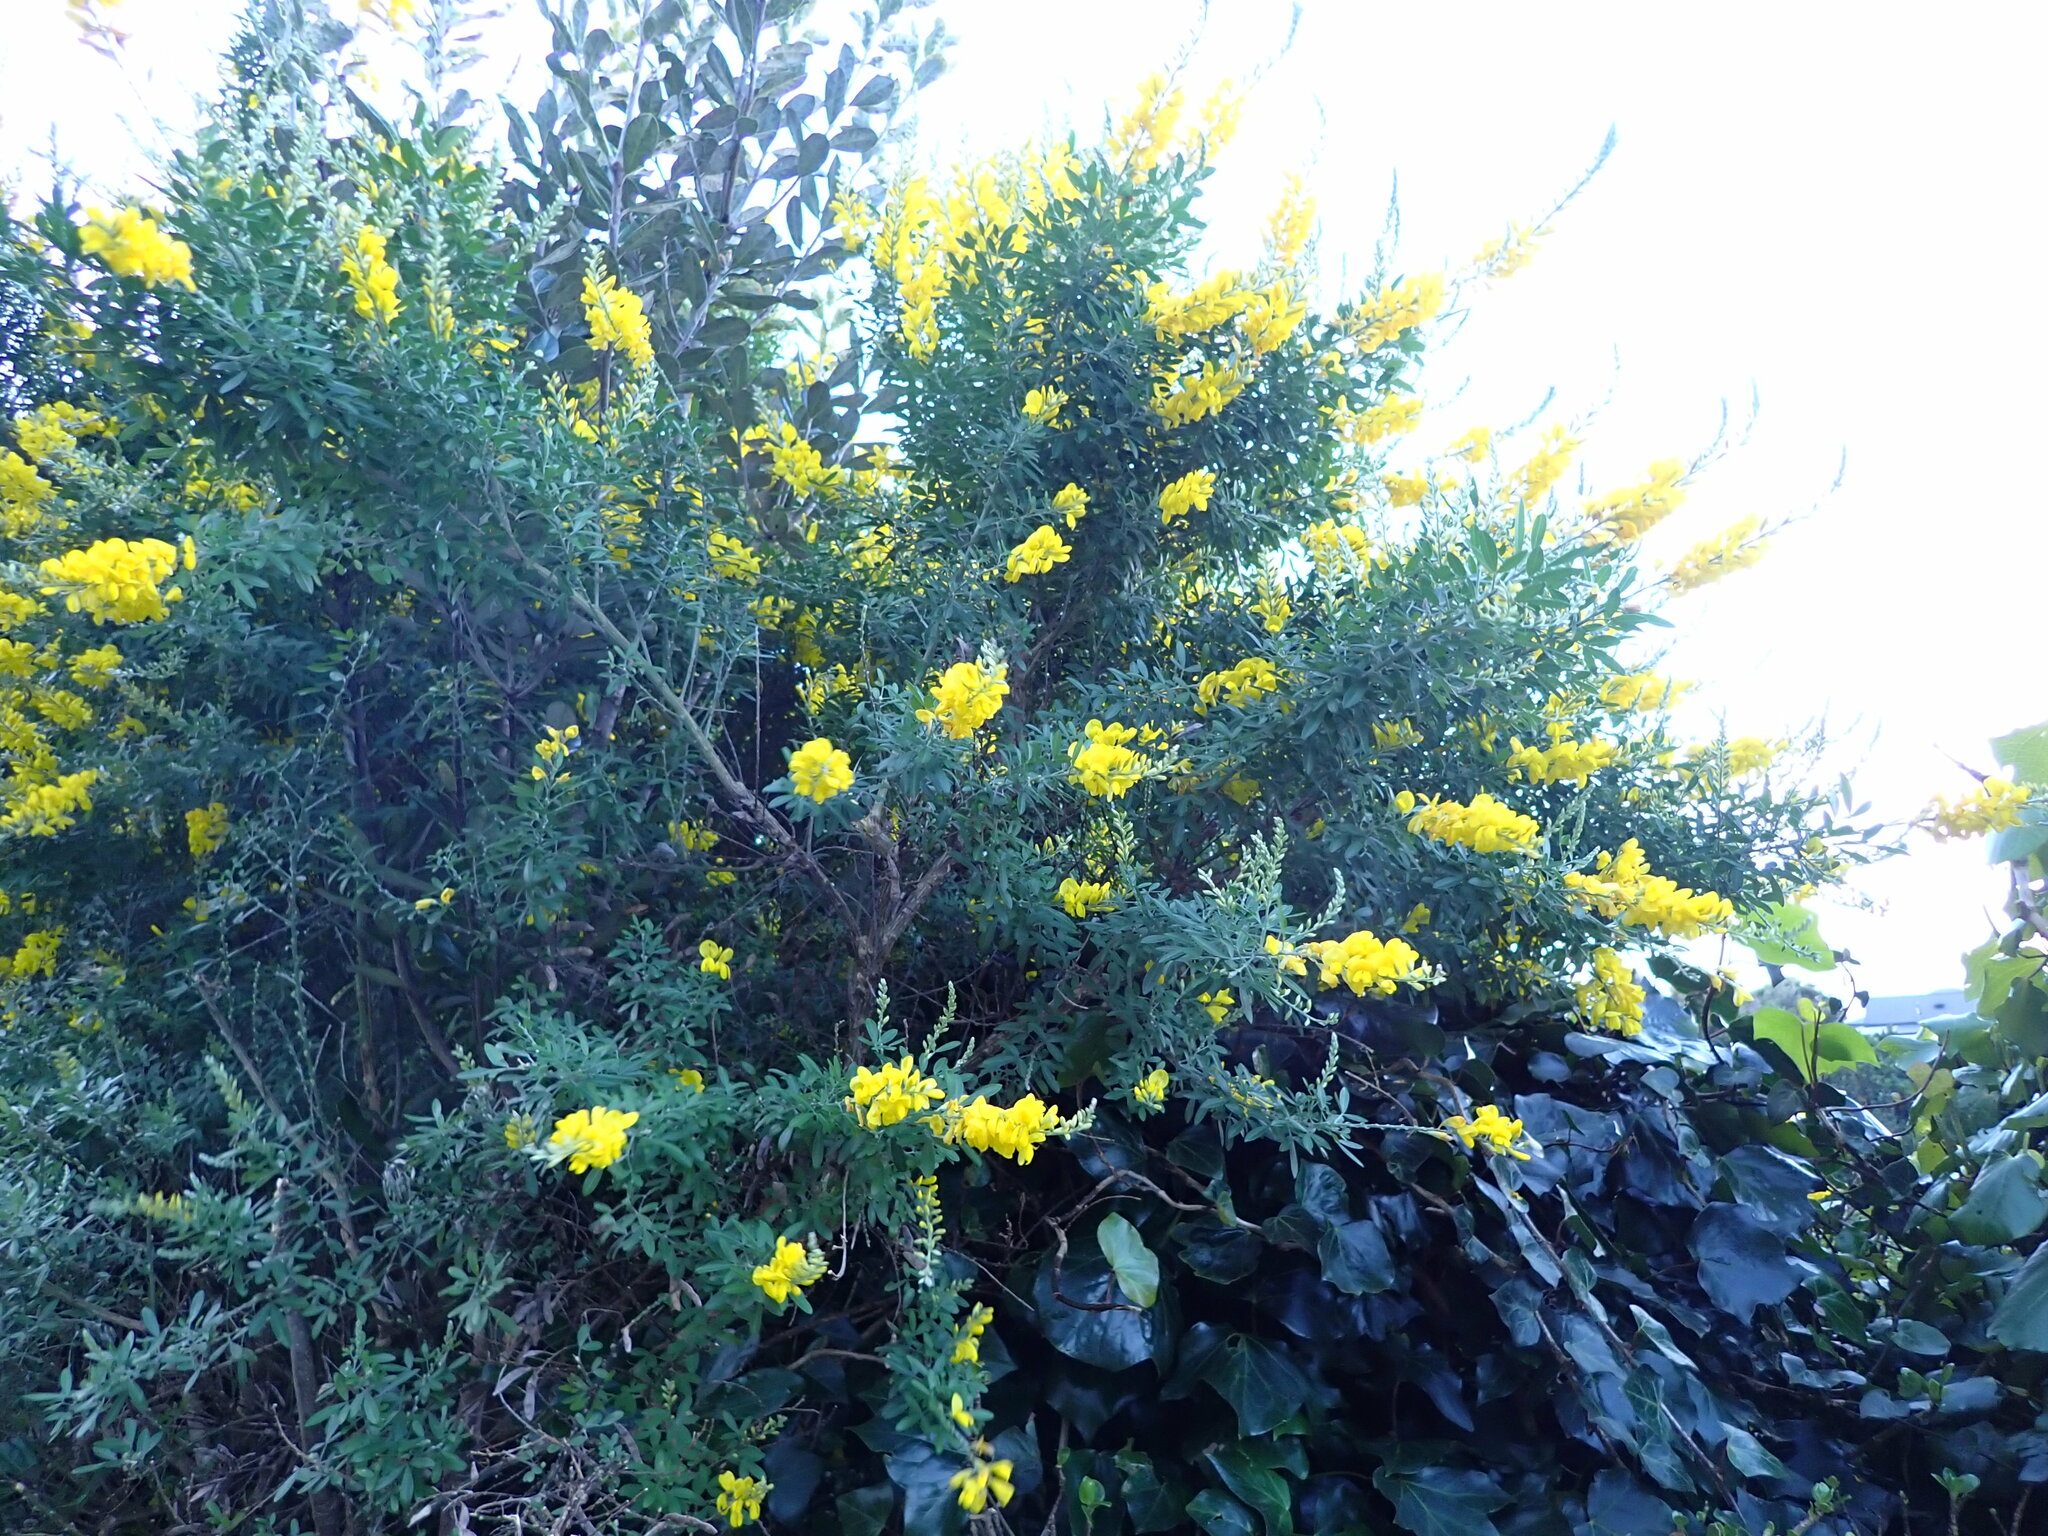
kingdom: Plantae
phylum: Tracheophyta
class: Magnoliopsida
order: Fabales
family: Fabaceae
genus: Genista
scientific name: Genista stenopetala
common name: Leafy broom
